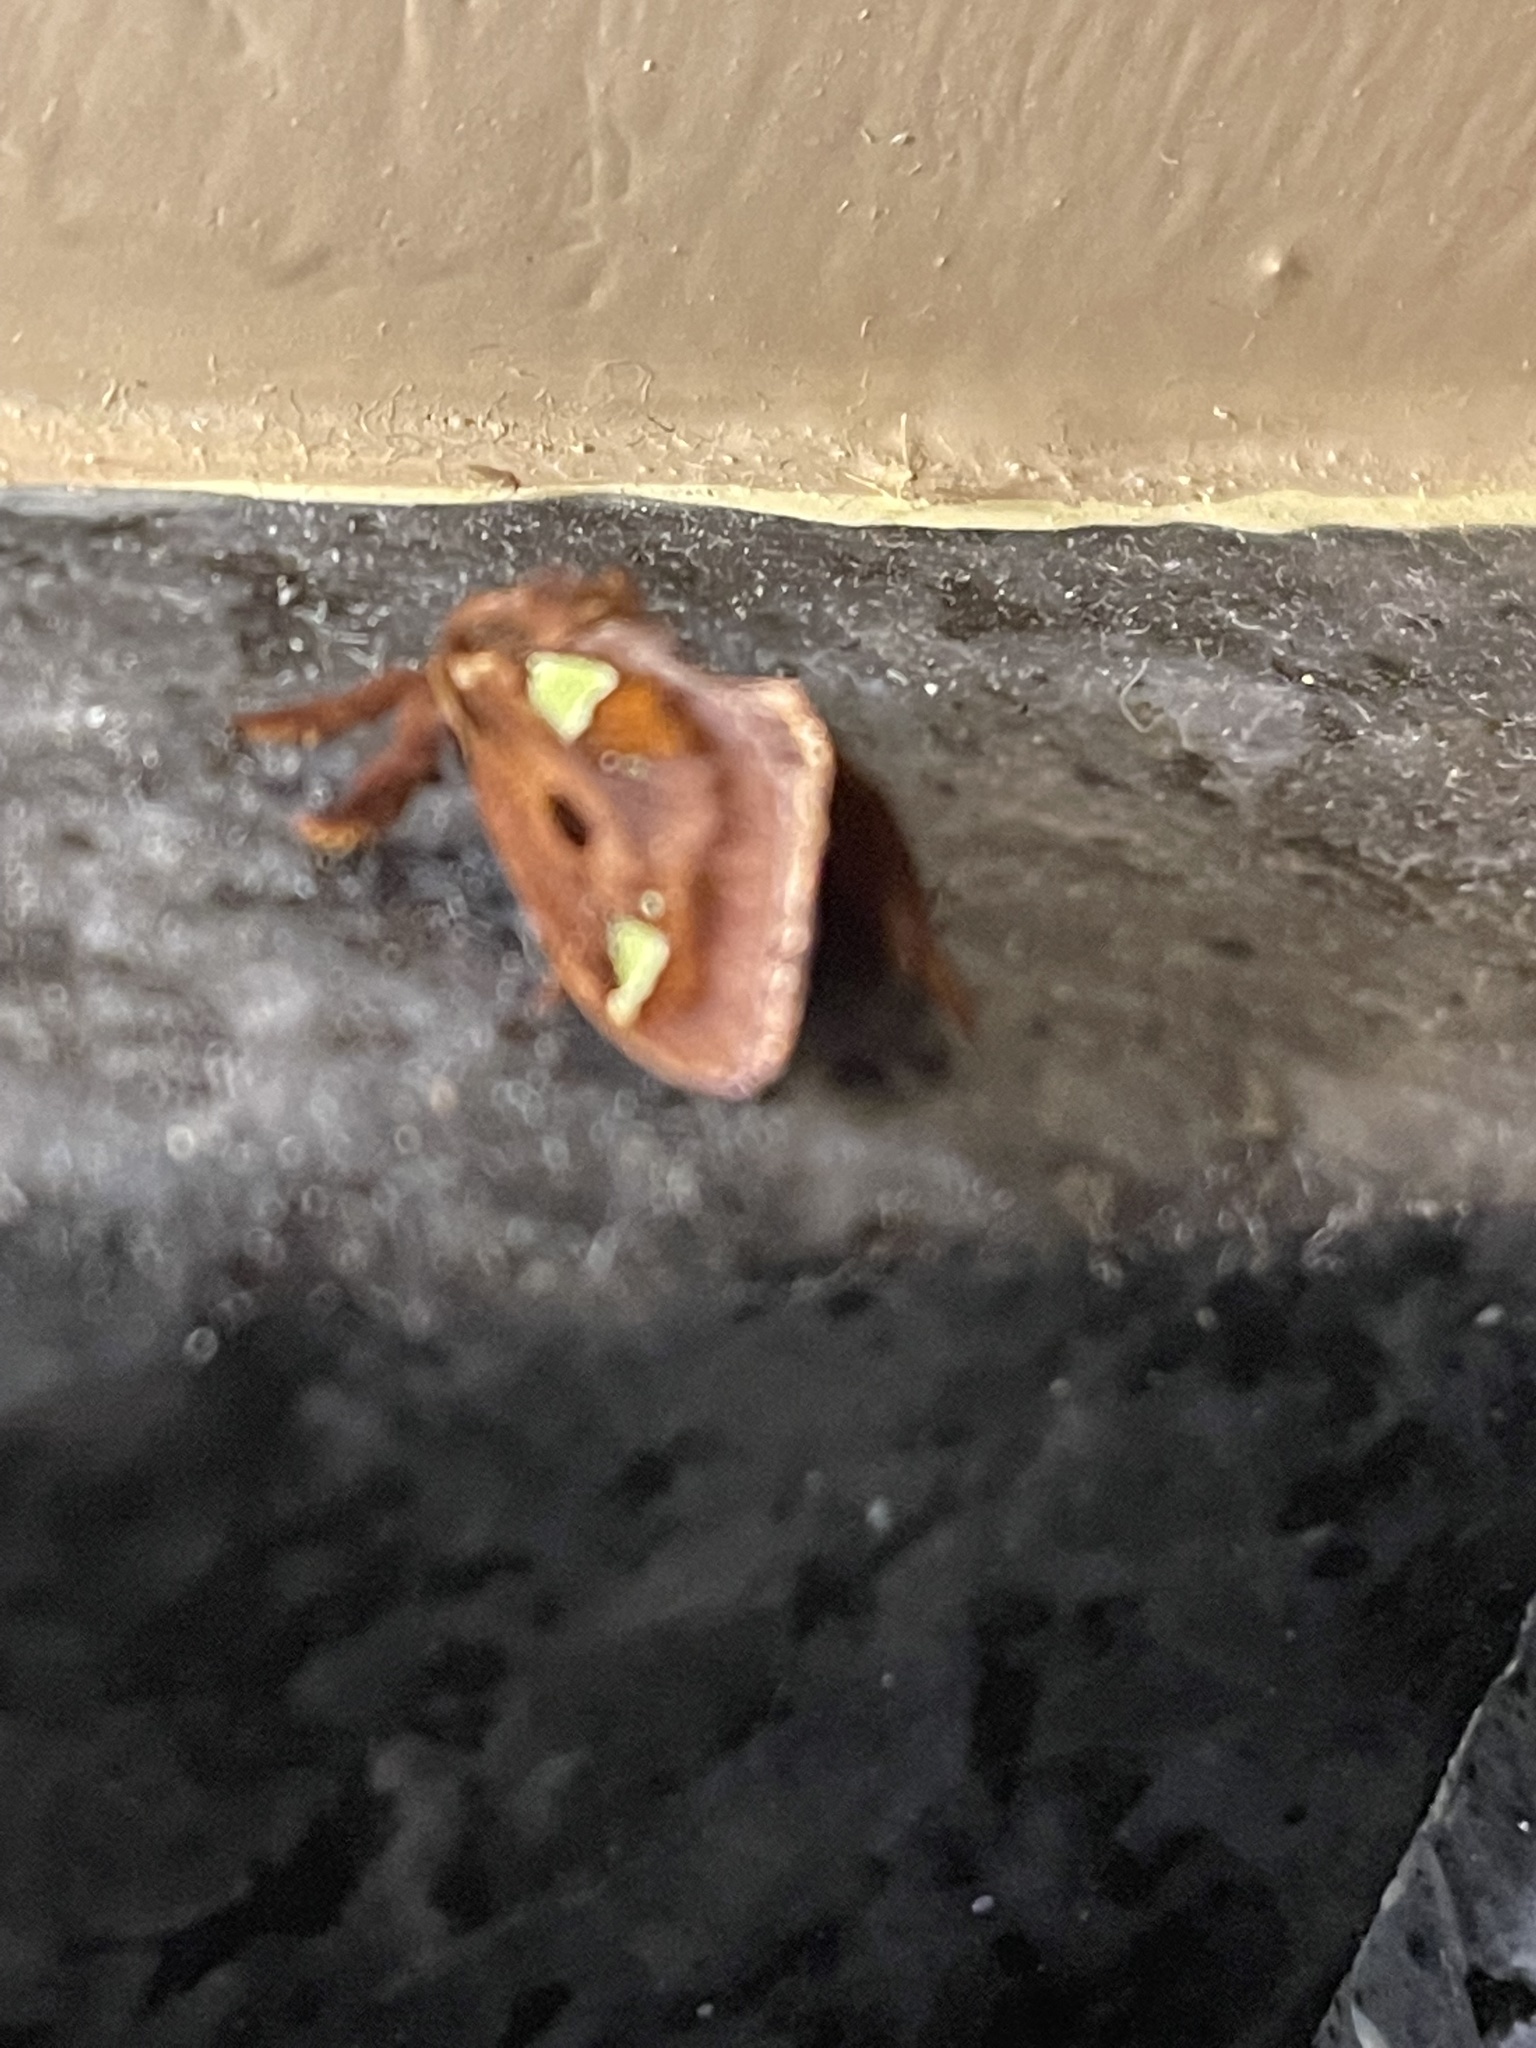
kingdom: Animalia
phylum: Arthropoda
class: Insecta
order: Lepidoptera
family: Limacodidae
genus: Euclea
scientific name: Euclea delphinii
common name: Spiny oak-slug moth
